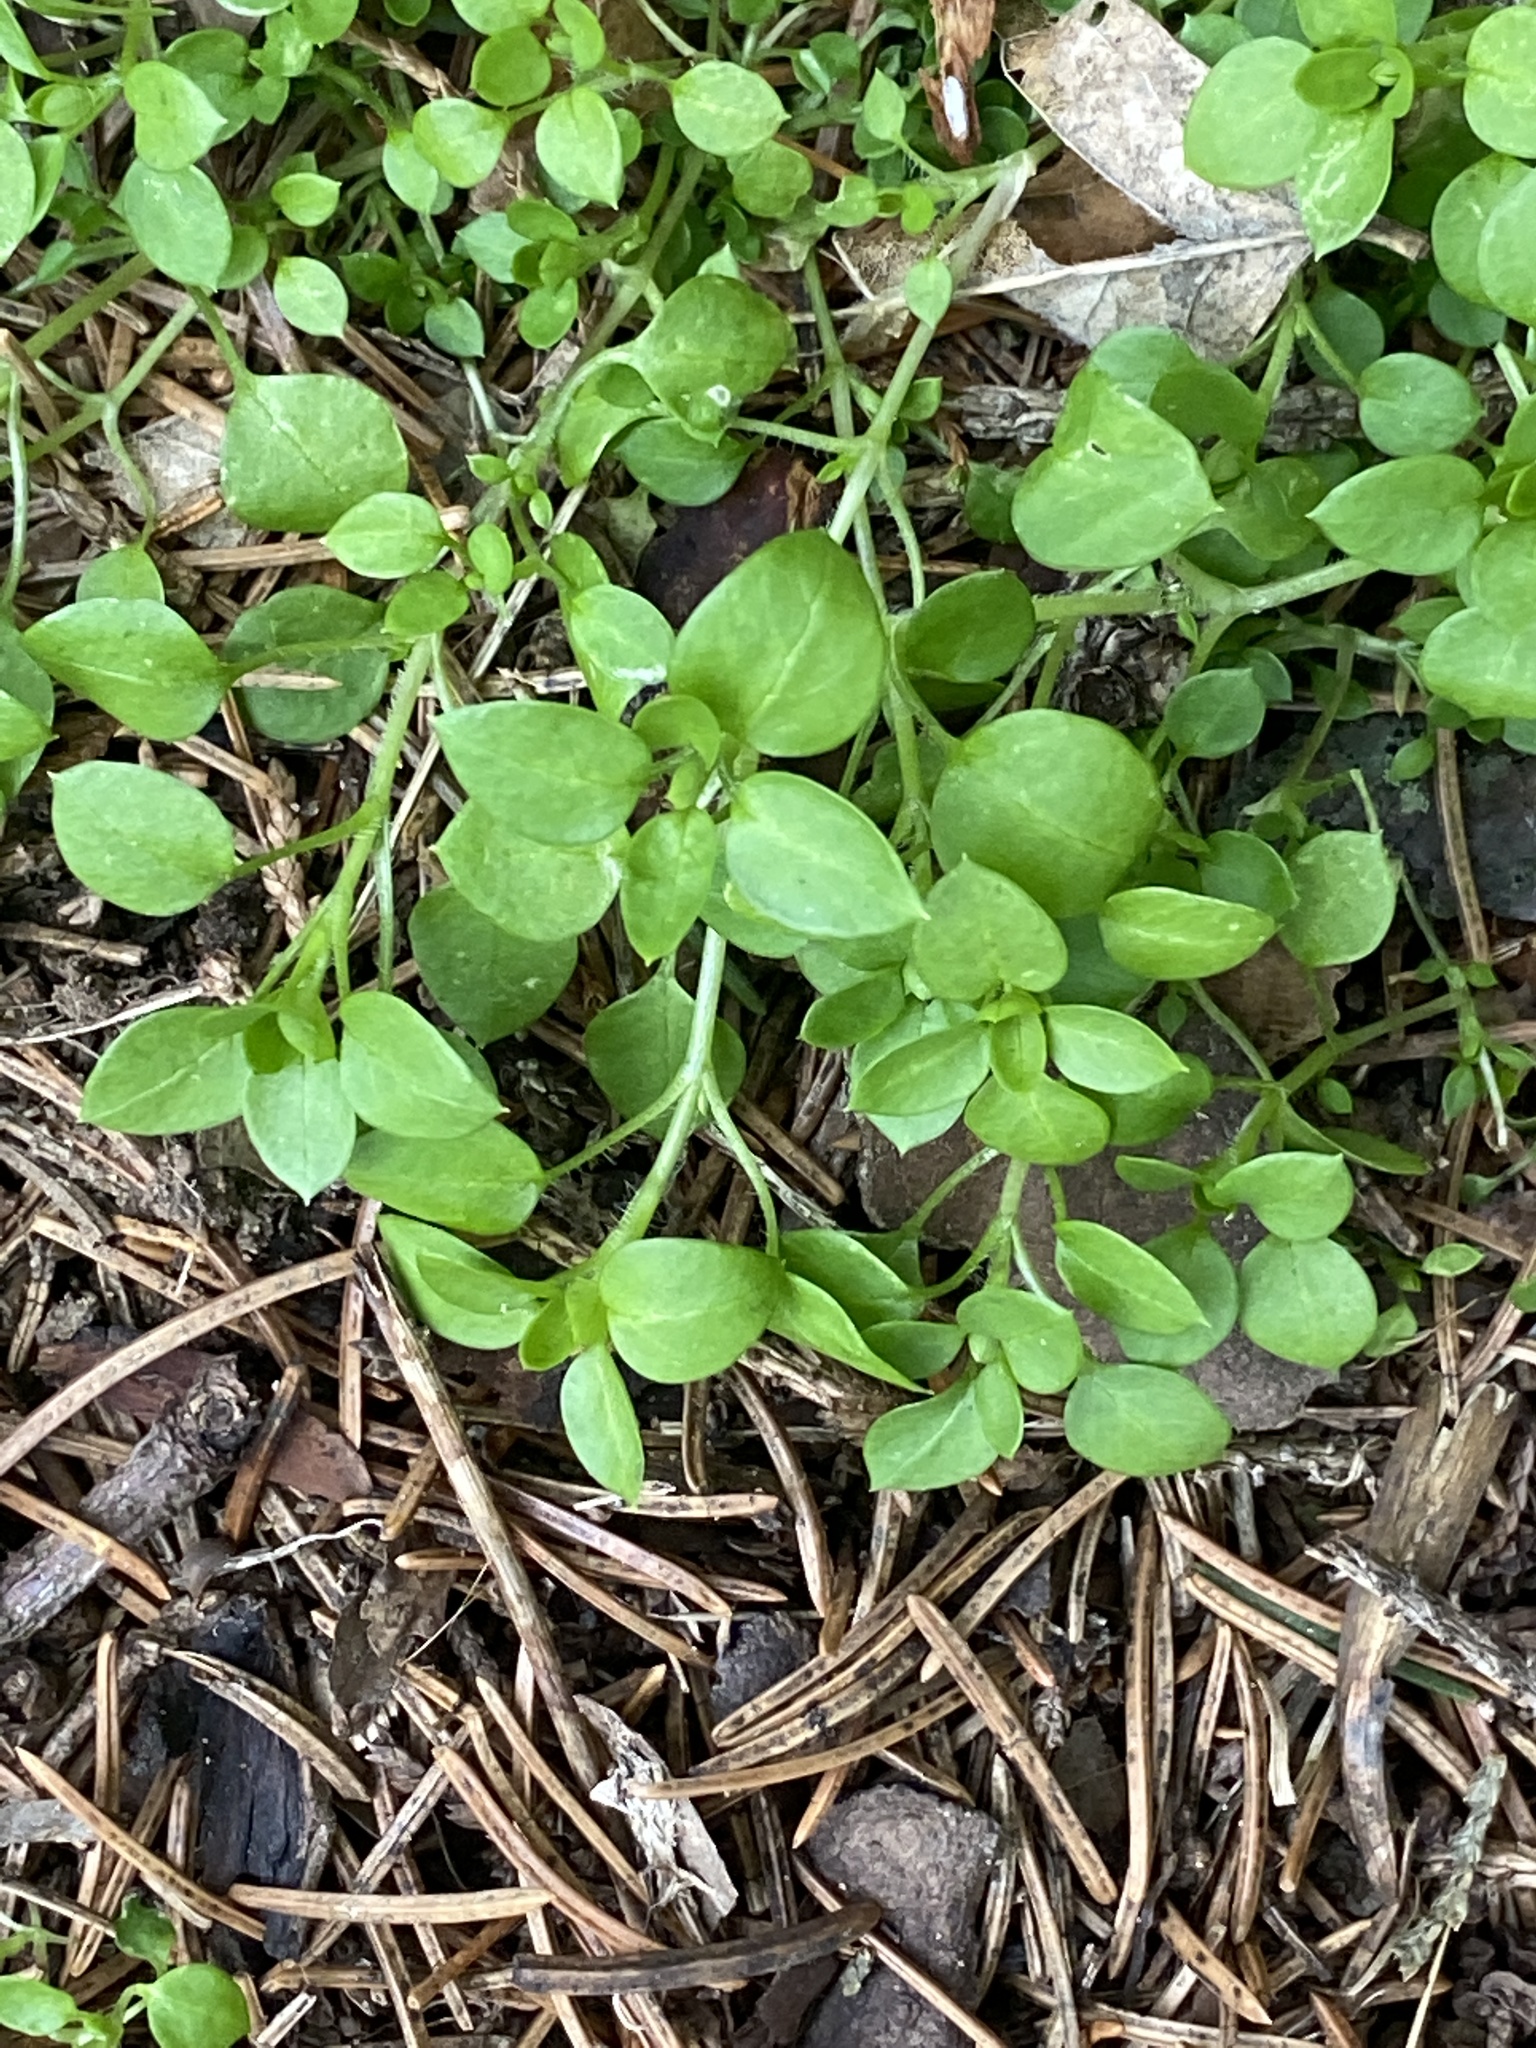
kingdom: Plantae
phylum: Tracheophyta
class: Magnoliopsida
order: Caryophyllales
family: Caryophyllaceae
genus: Stellaria
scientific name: Stellaria media
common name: Common chickweed
